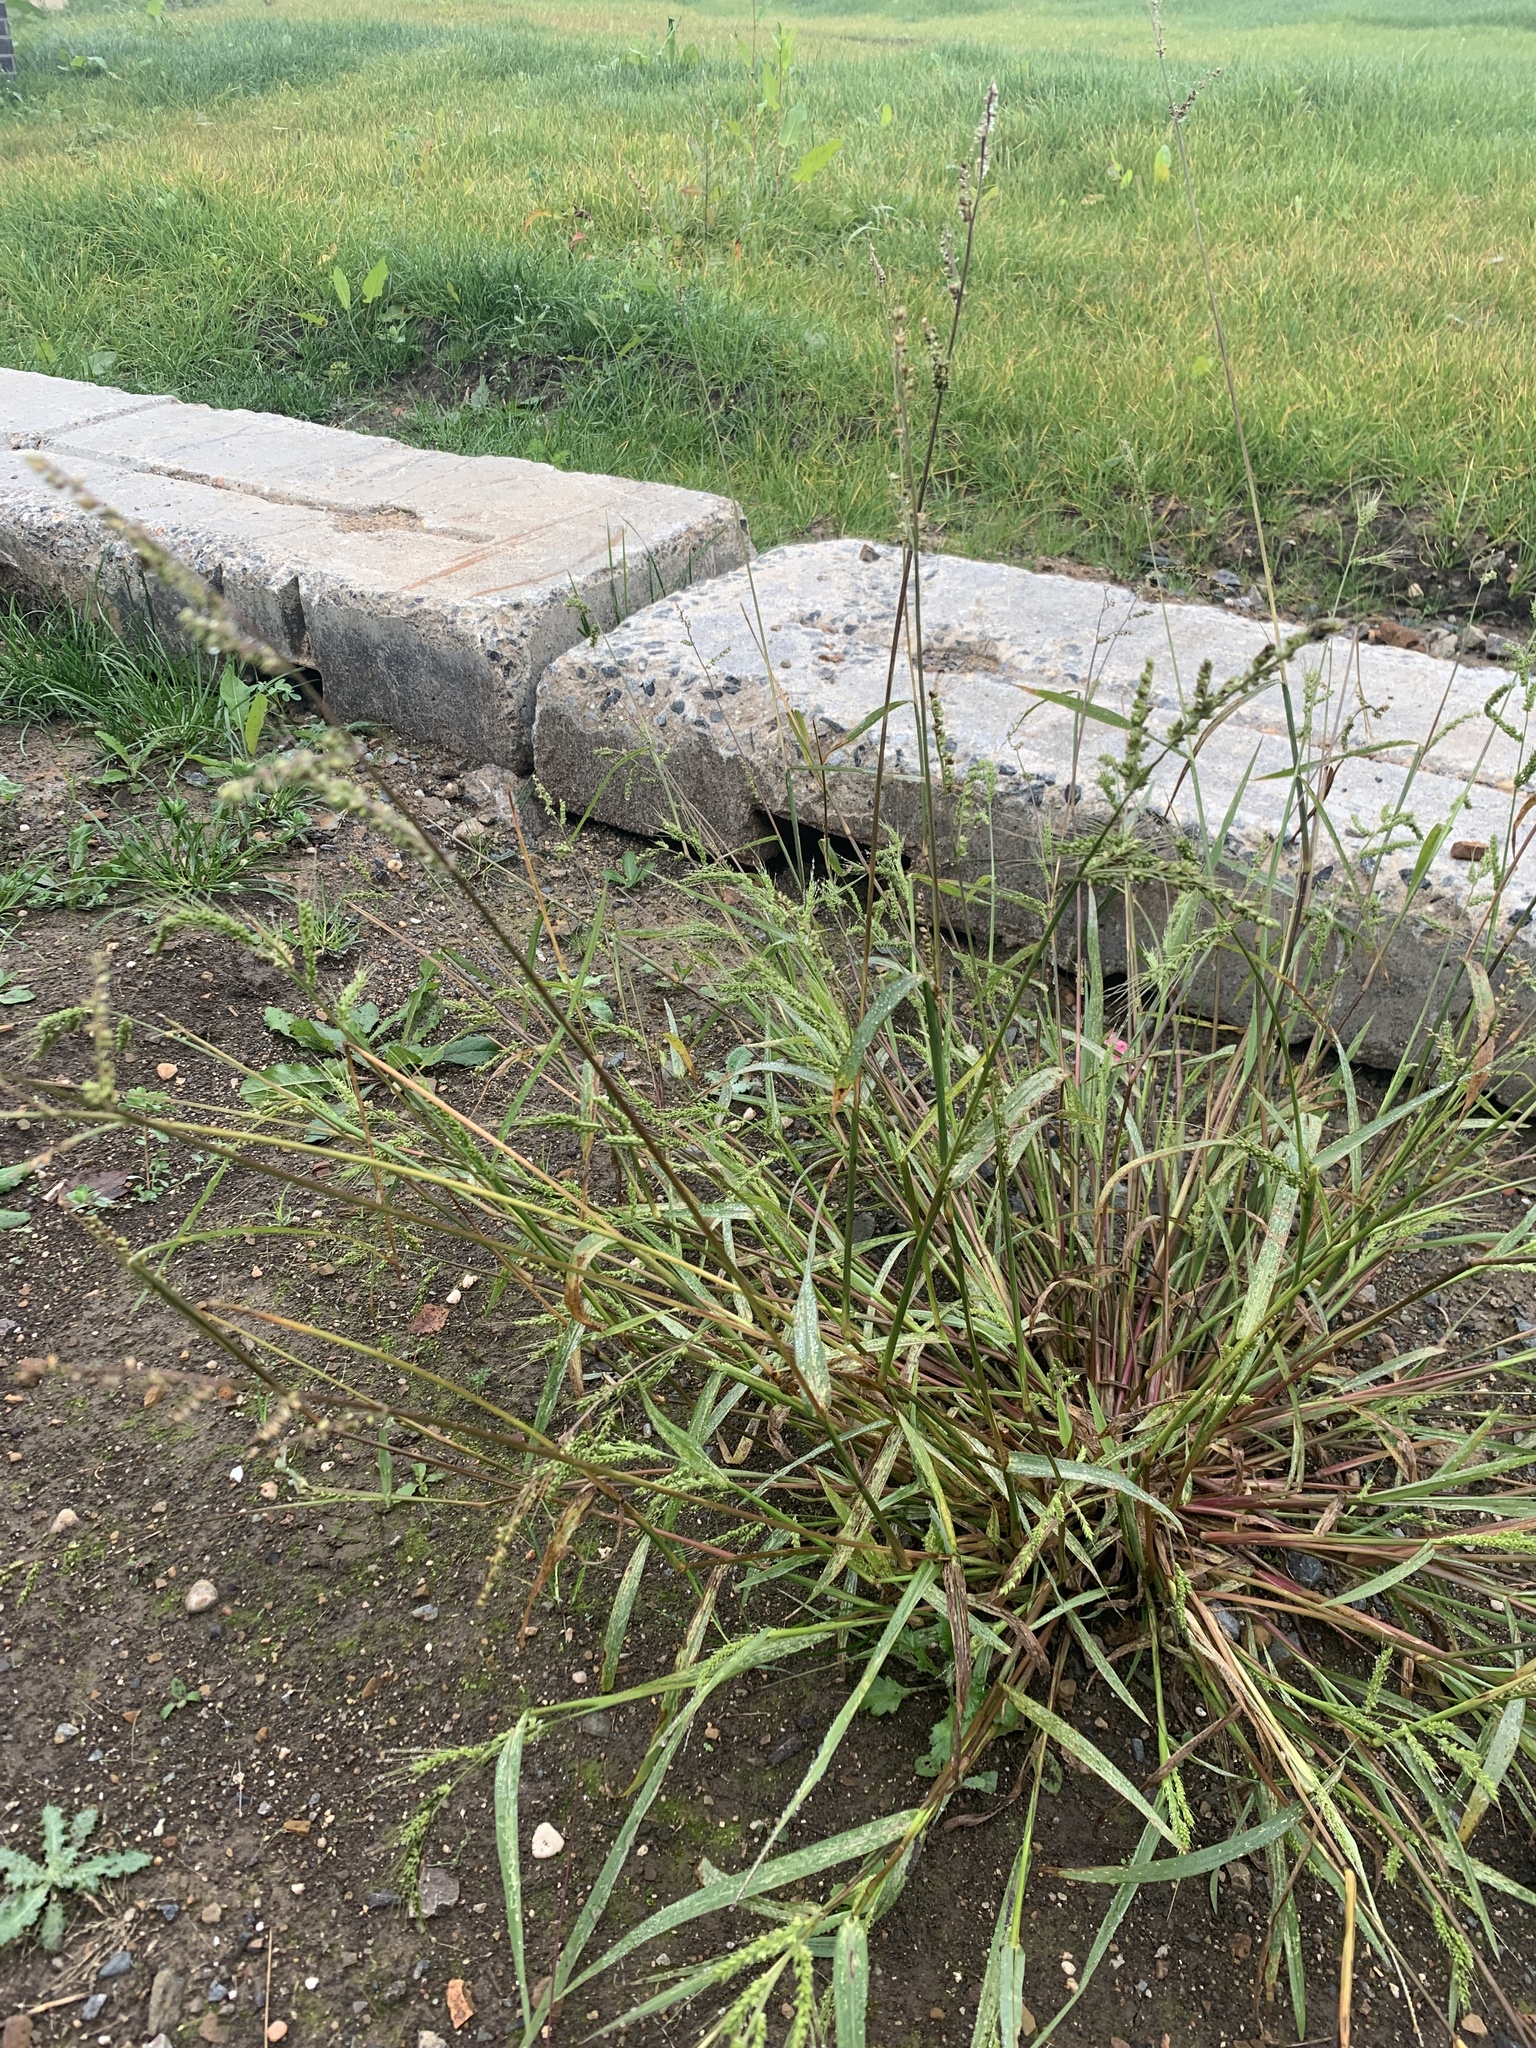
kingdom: Plantae
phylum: Tracheophyta
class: Liliopsida
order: Poales
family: Poaceae
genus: Echinochloa
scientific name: Echinochloa crus-galli
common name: Cockspur
